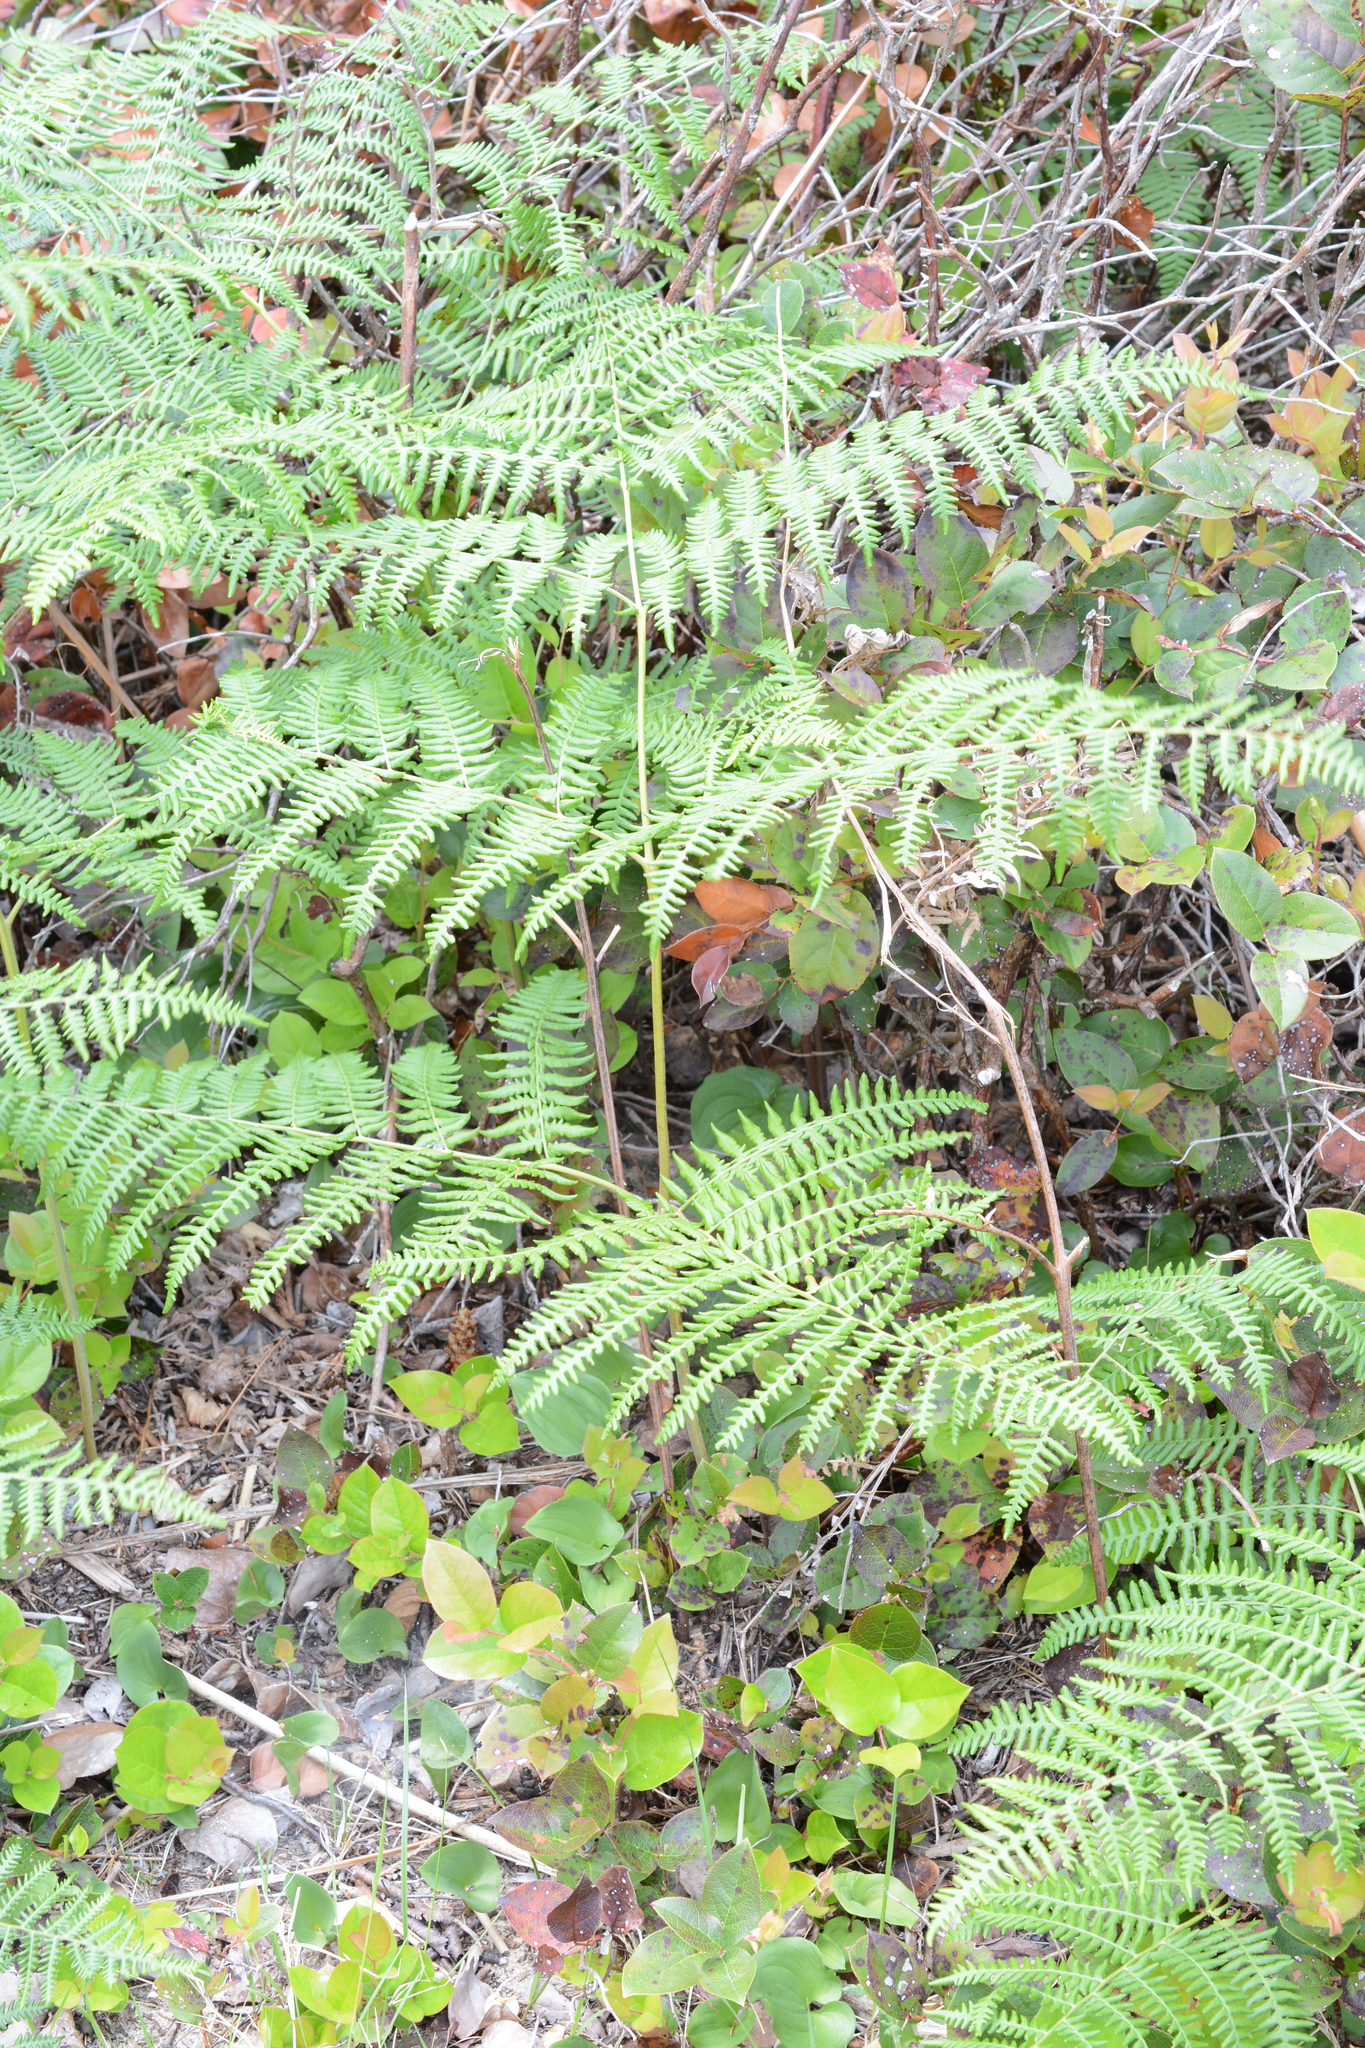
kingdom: Plantae
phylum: Tracheophyta
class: Polypodiopsida
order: Polypodiales
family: Dennstaedtiaceae
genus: Pteridium
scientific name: Pteridium aquilinum
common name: Bracken
